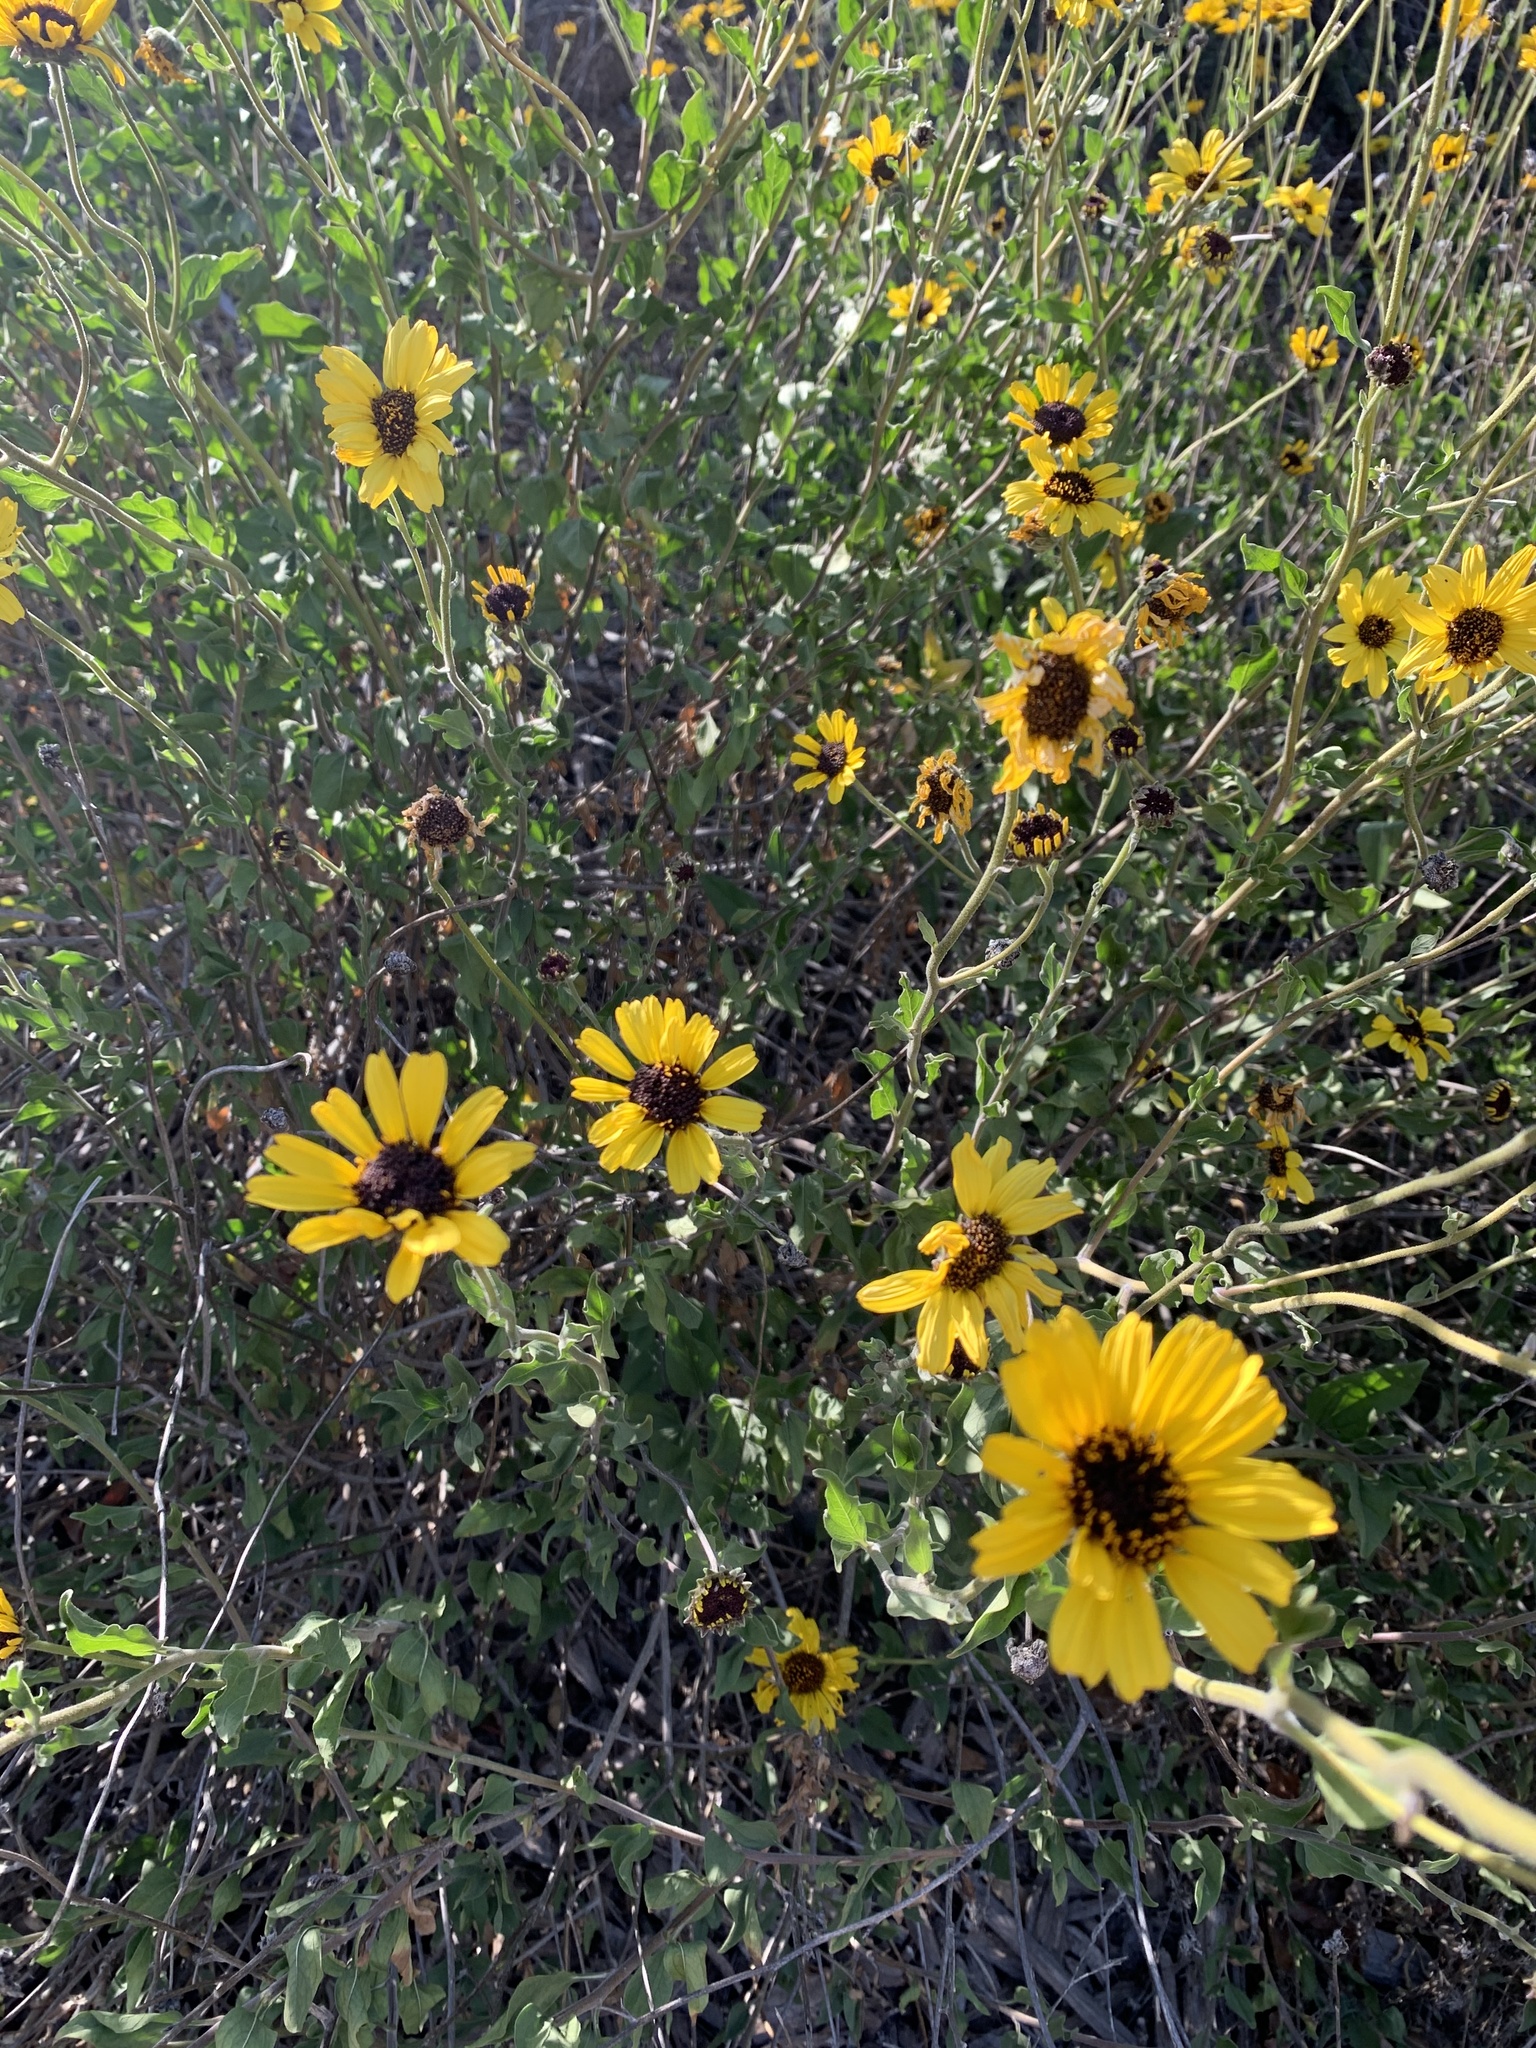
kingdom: Plantae
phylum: Tracheophyta
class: Magnoliopsida
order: Asterales
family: Asteraceae
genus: Encelia
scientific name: Encelia californica
